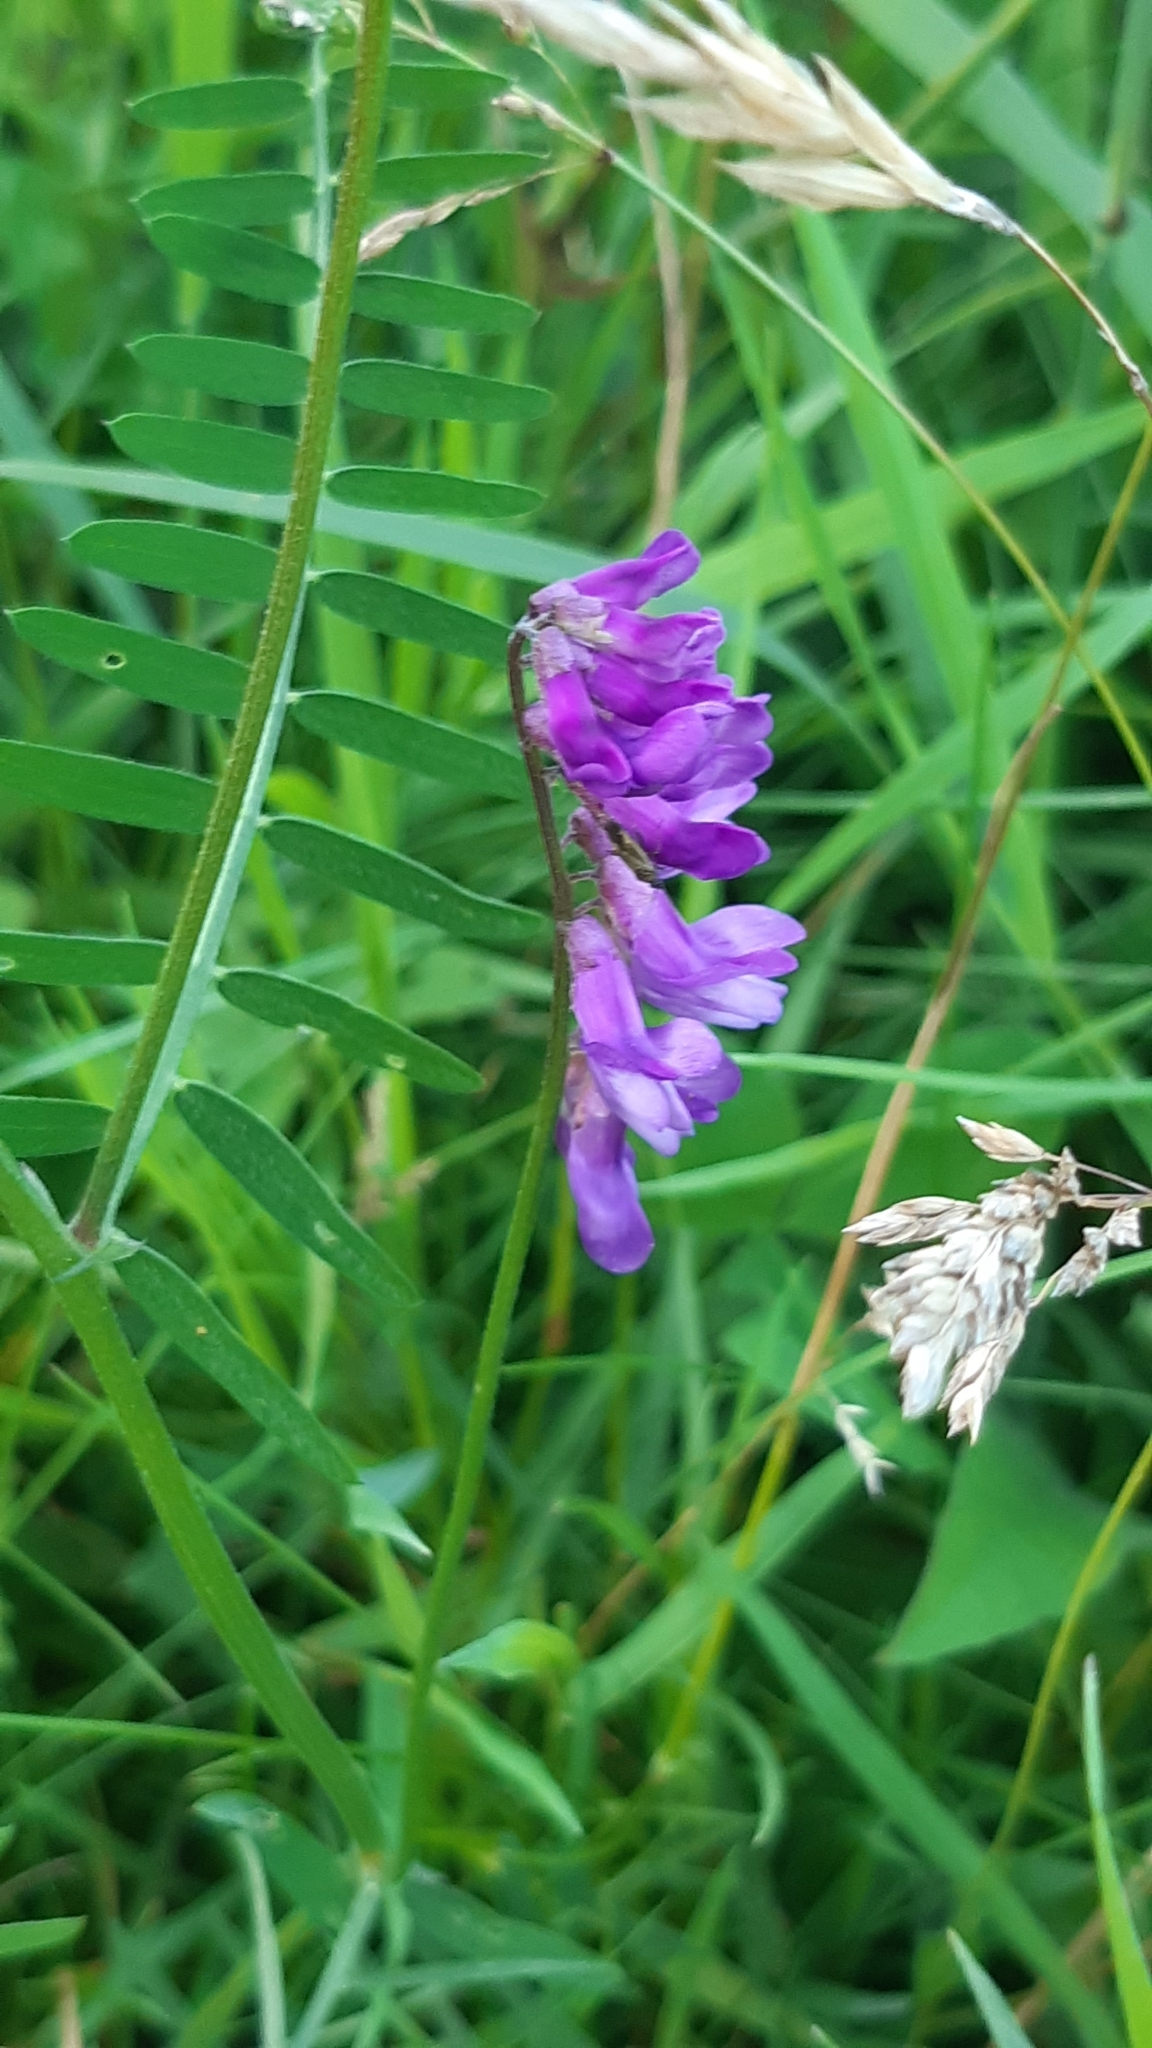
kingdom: Plantae
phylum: Tracheophyta
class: Magnoliopsida
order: Fabales
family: Fabaceae
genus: Vicia
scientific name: Vicia cracca
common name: Bird vetch
